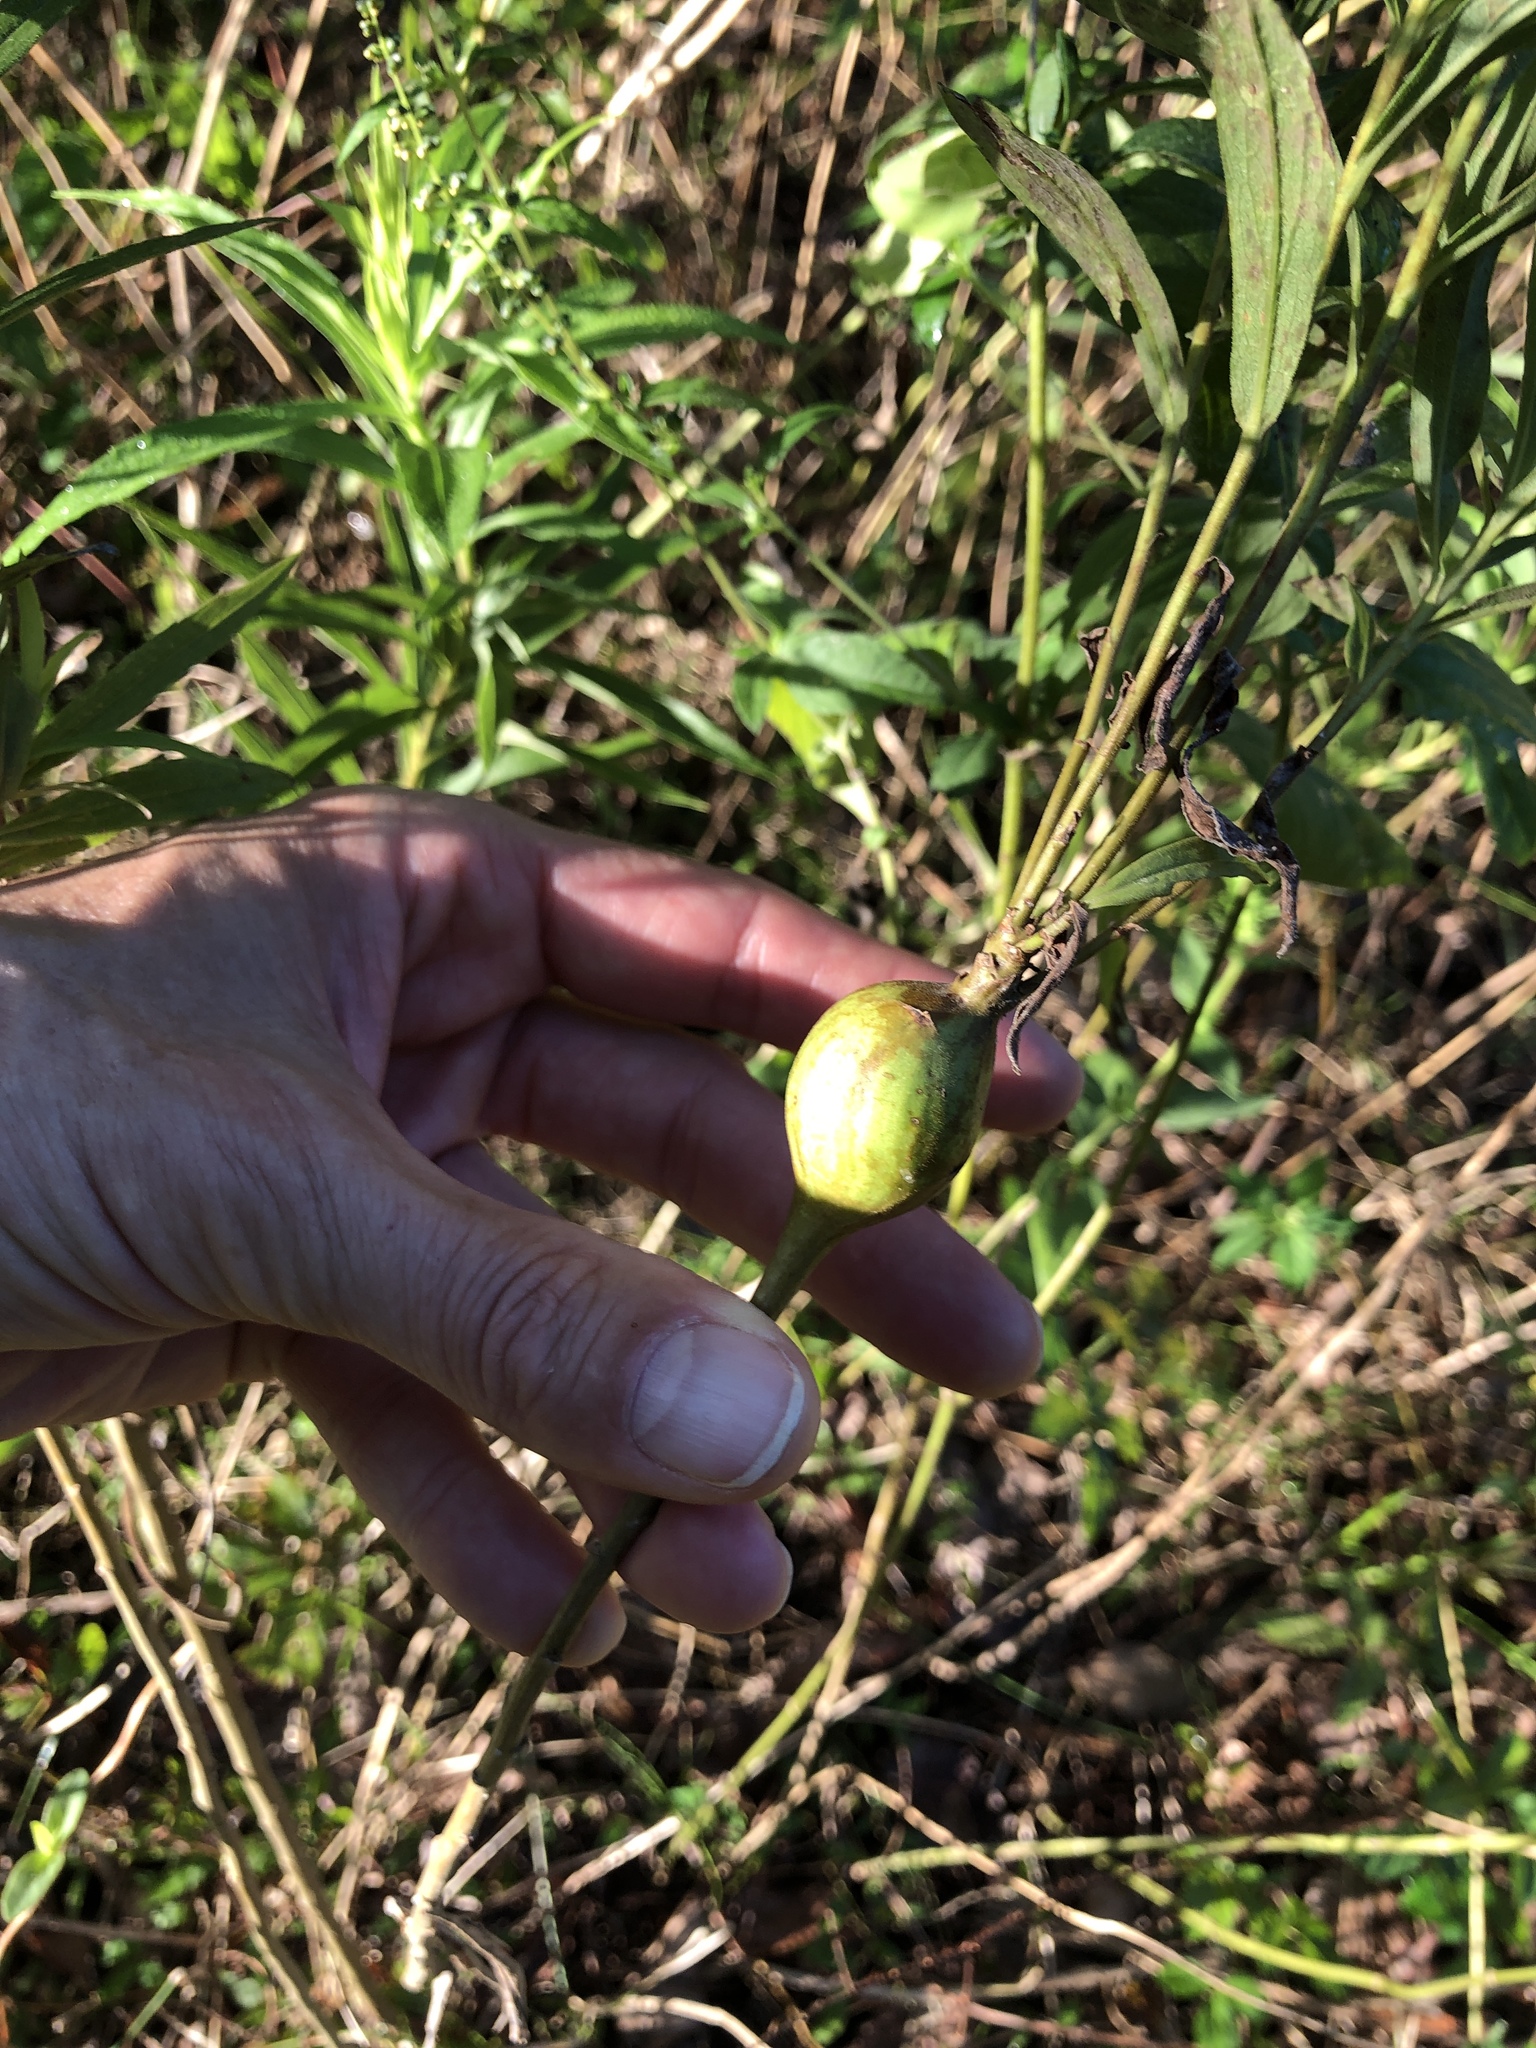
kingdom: Animalia
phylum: Arthropoda
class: Insecta
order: Diptera
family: Tephritidae
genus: Eurosta
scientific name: Eurosta solidaginis
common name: Goldenrod gall fly
